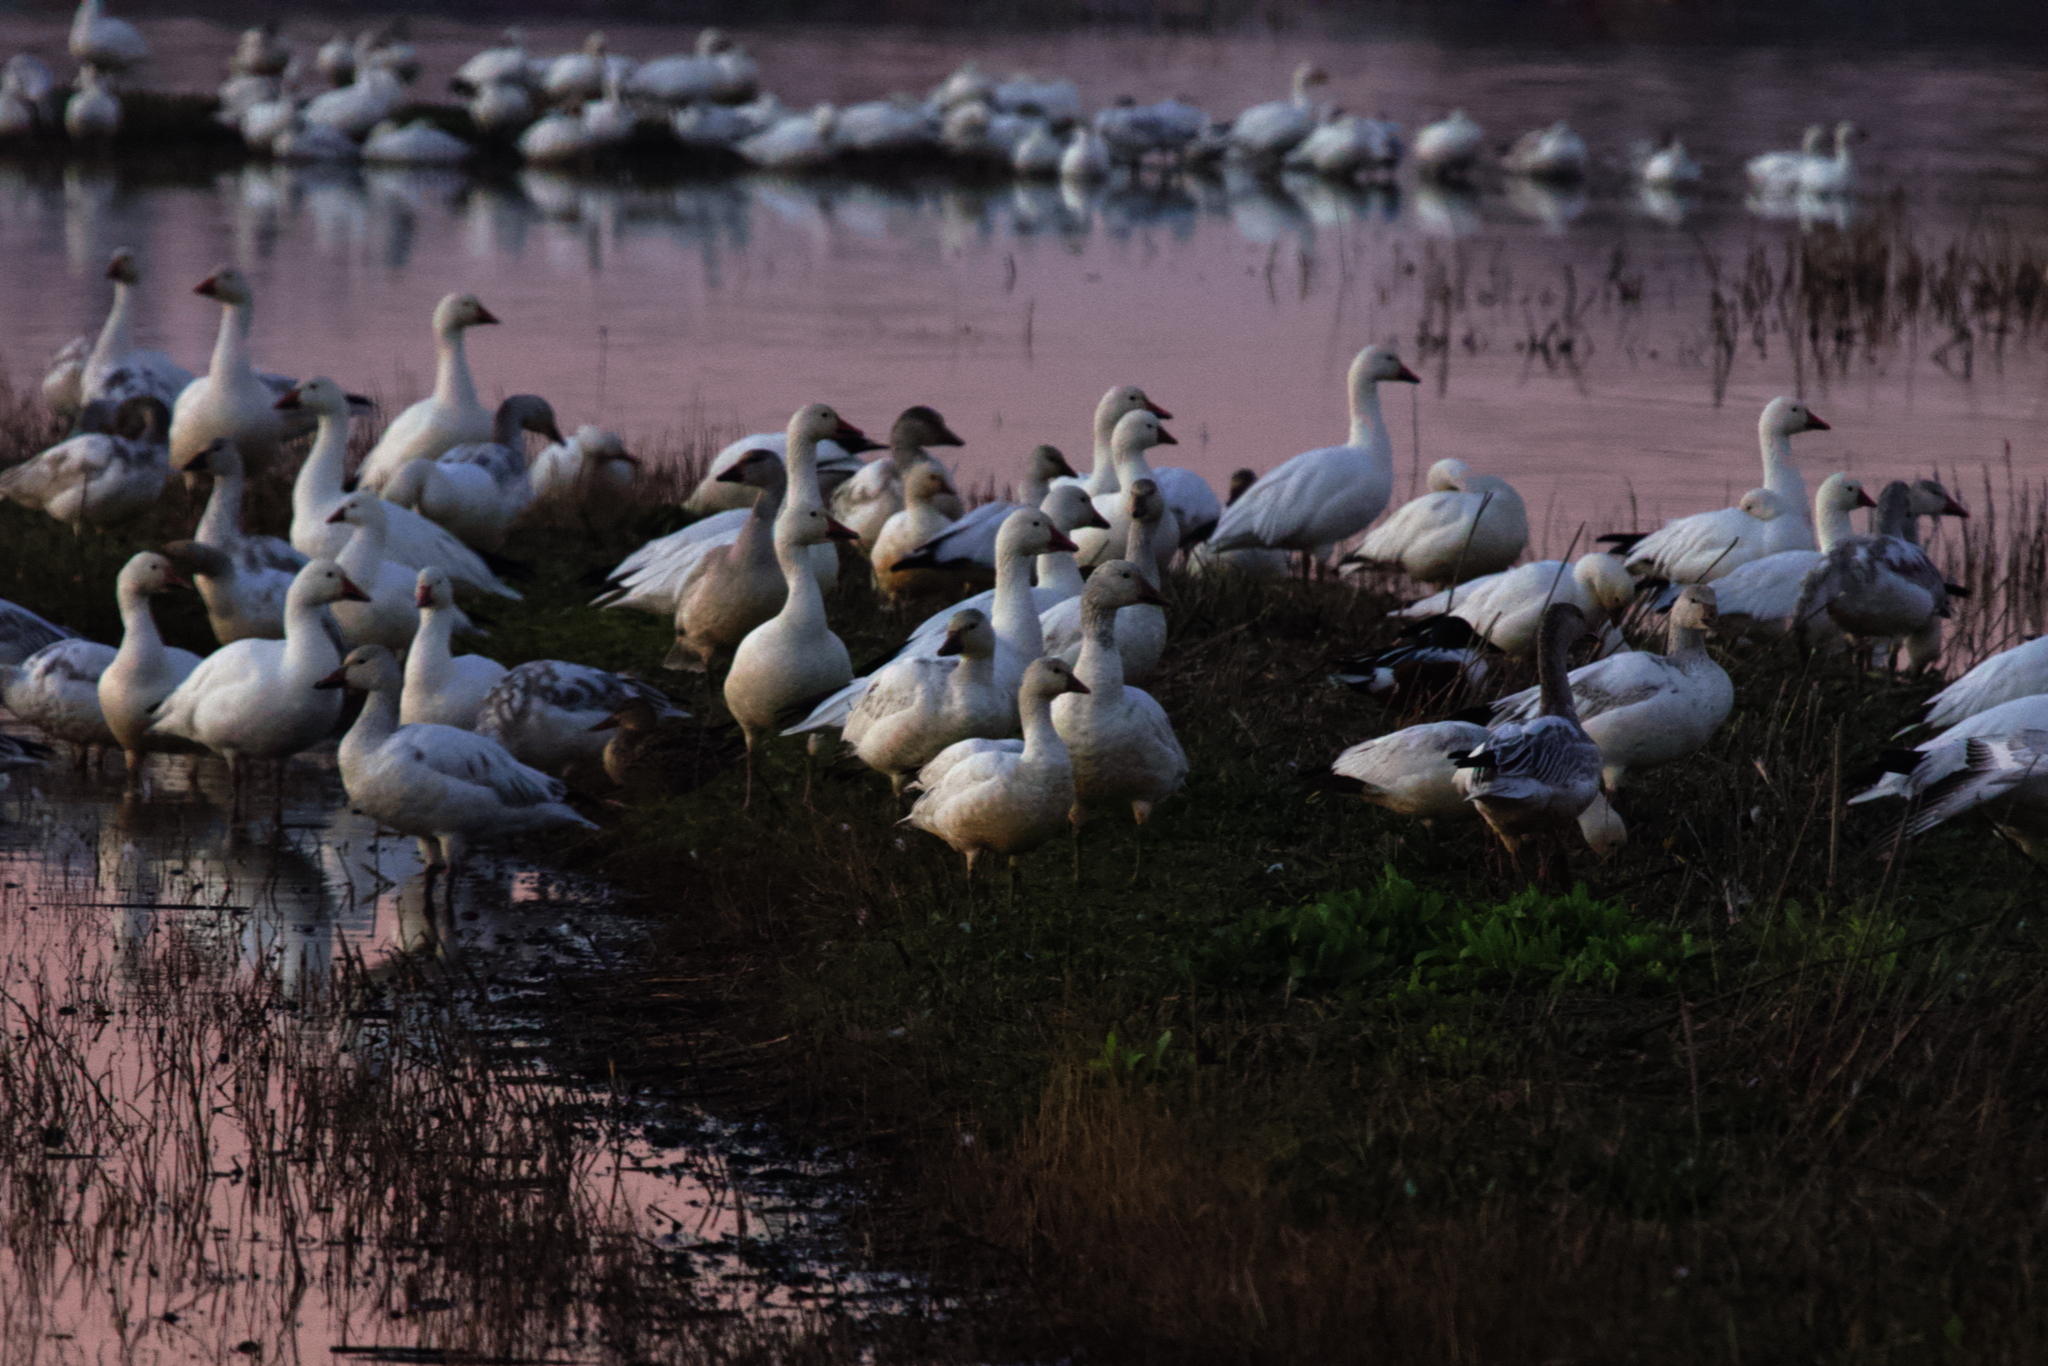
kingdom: Animalia
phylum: Chordata
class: Aves
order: Anseriformes
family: Anatidae
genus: Anser
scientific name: Anser rossii
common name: Ross's goose
